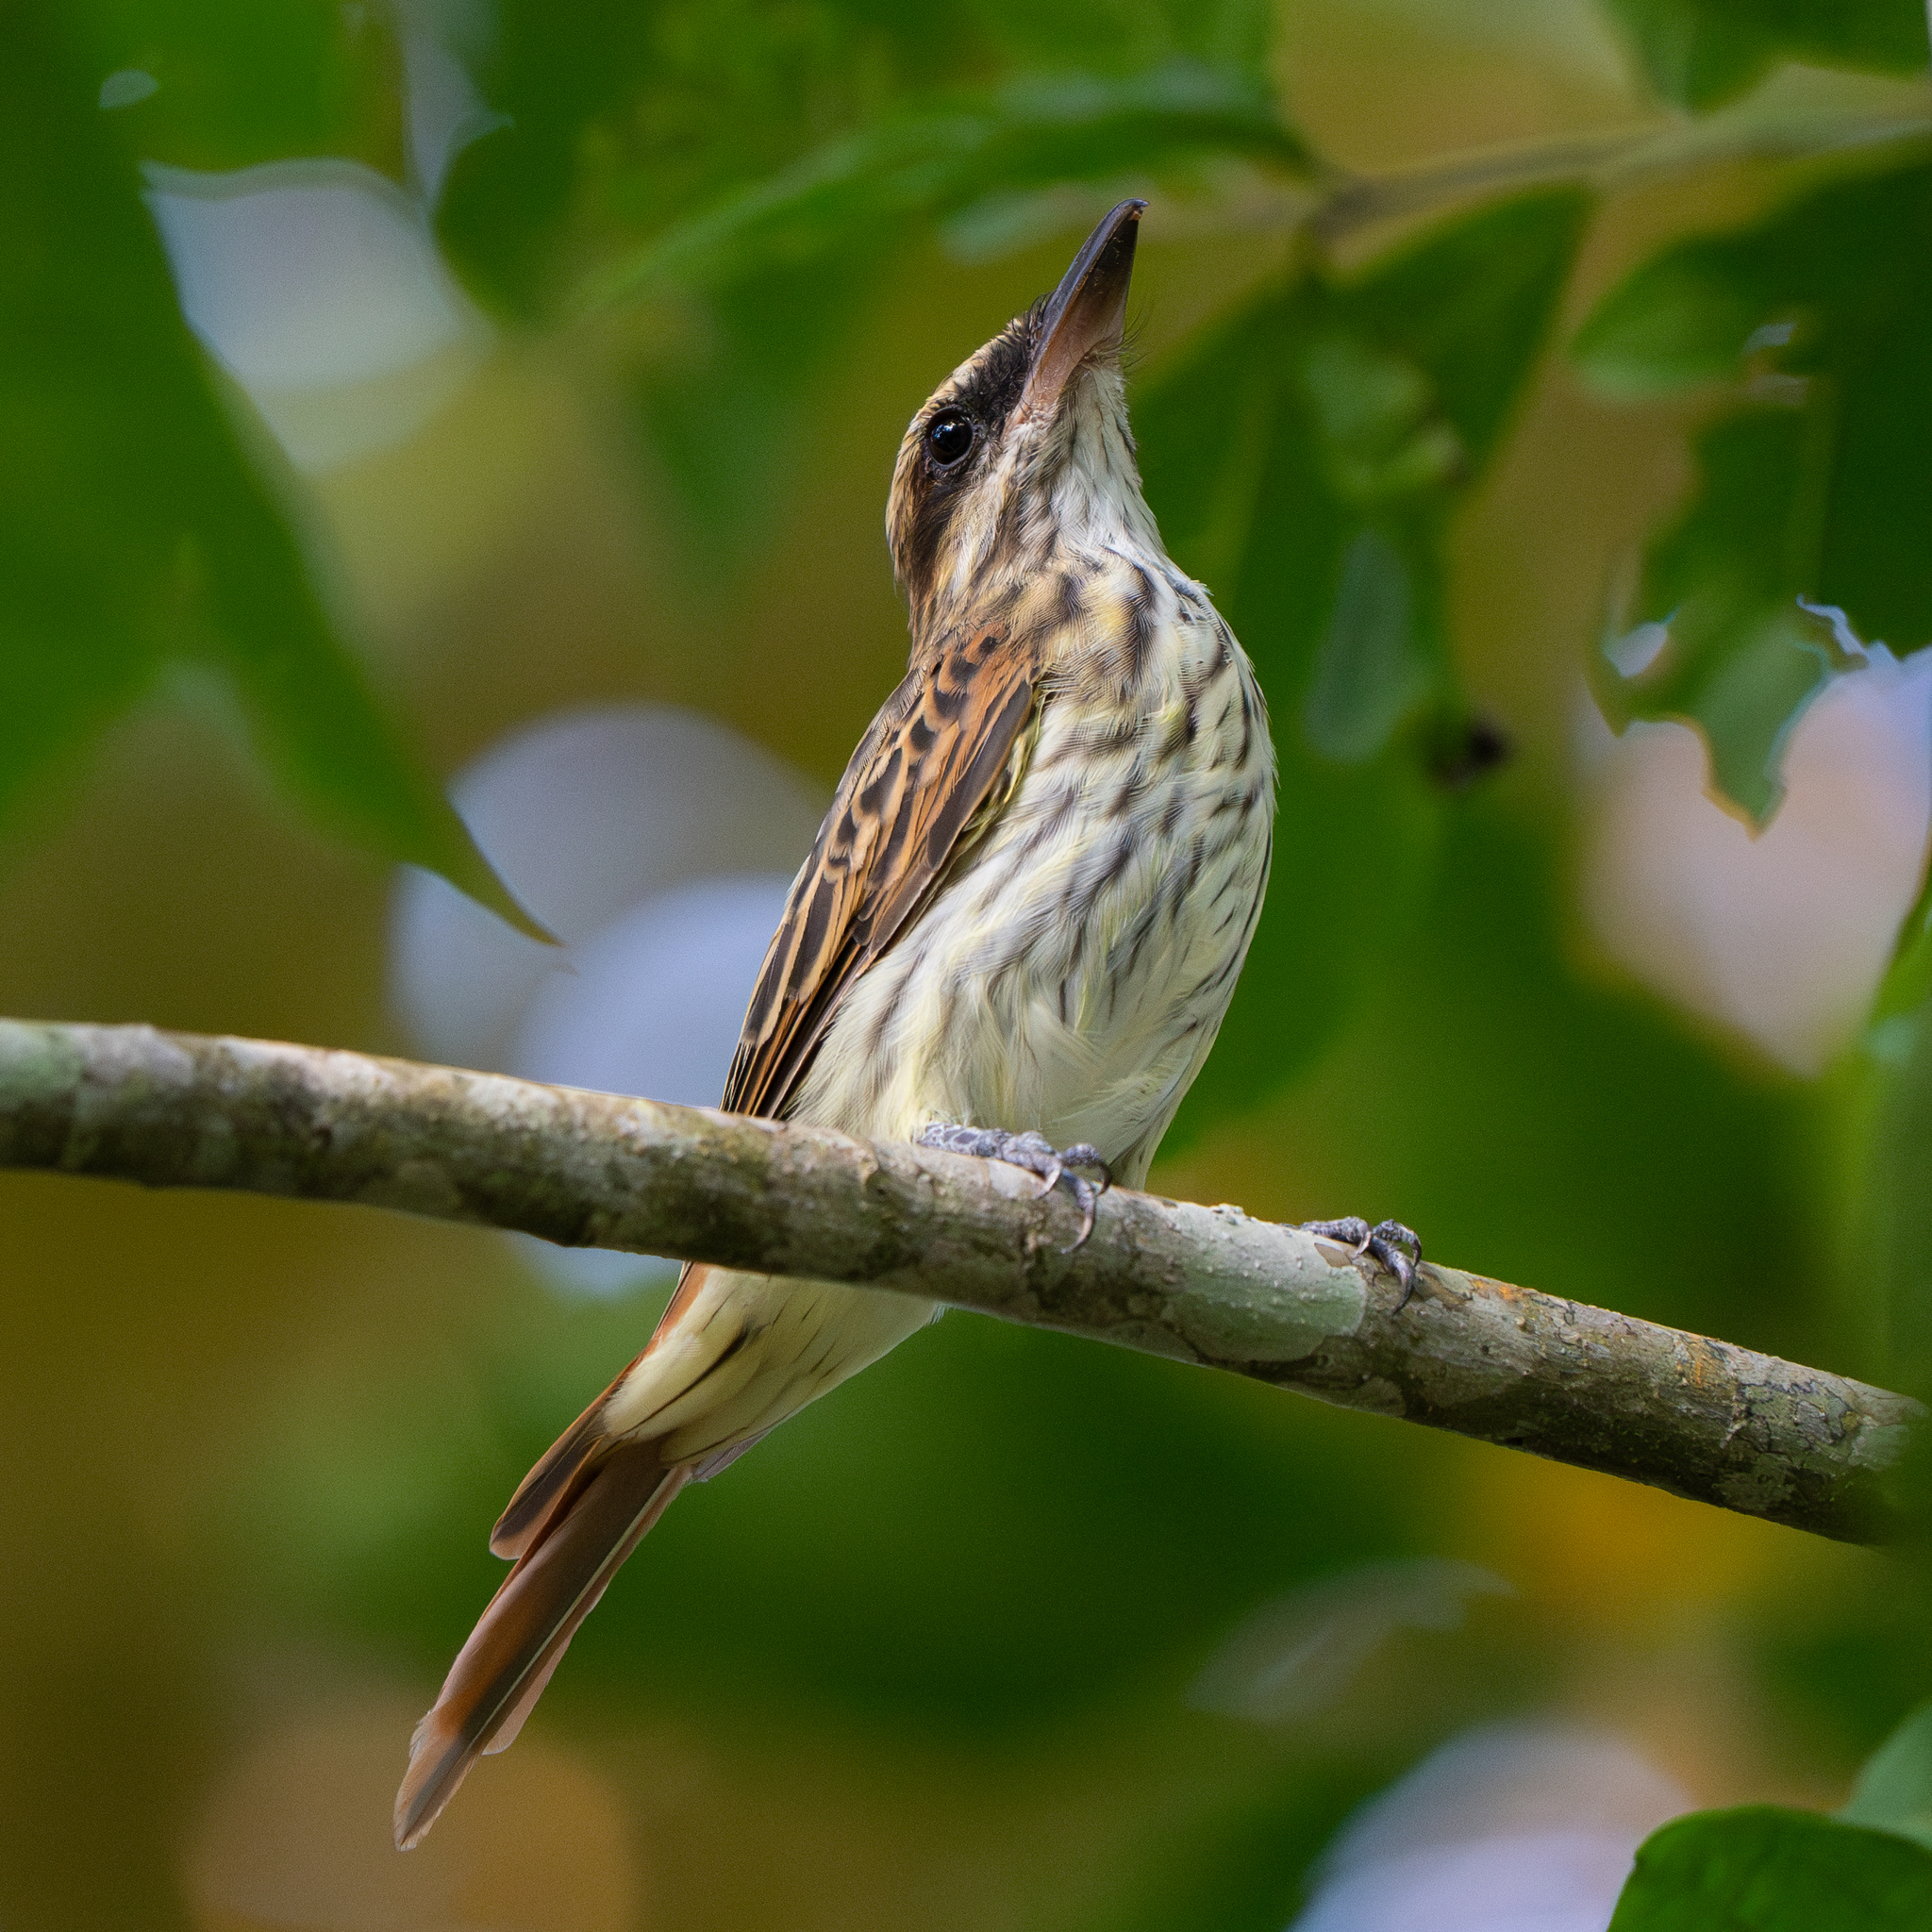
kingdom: Animalia
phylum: Chordata
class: Aves
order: Passeriformes
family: Tyrannidae
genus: Myiodynastes
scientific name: Myiodynastes maculatus
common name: Streaked flycatcher
